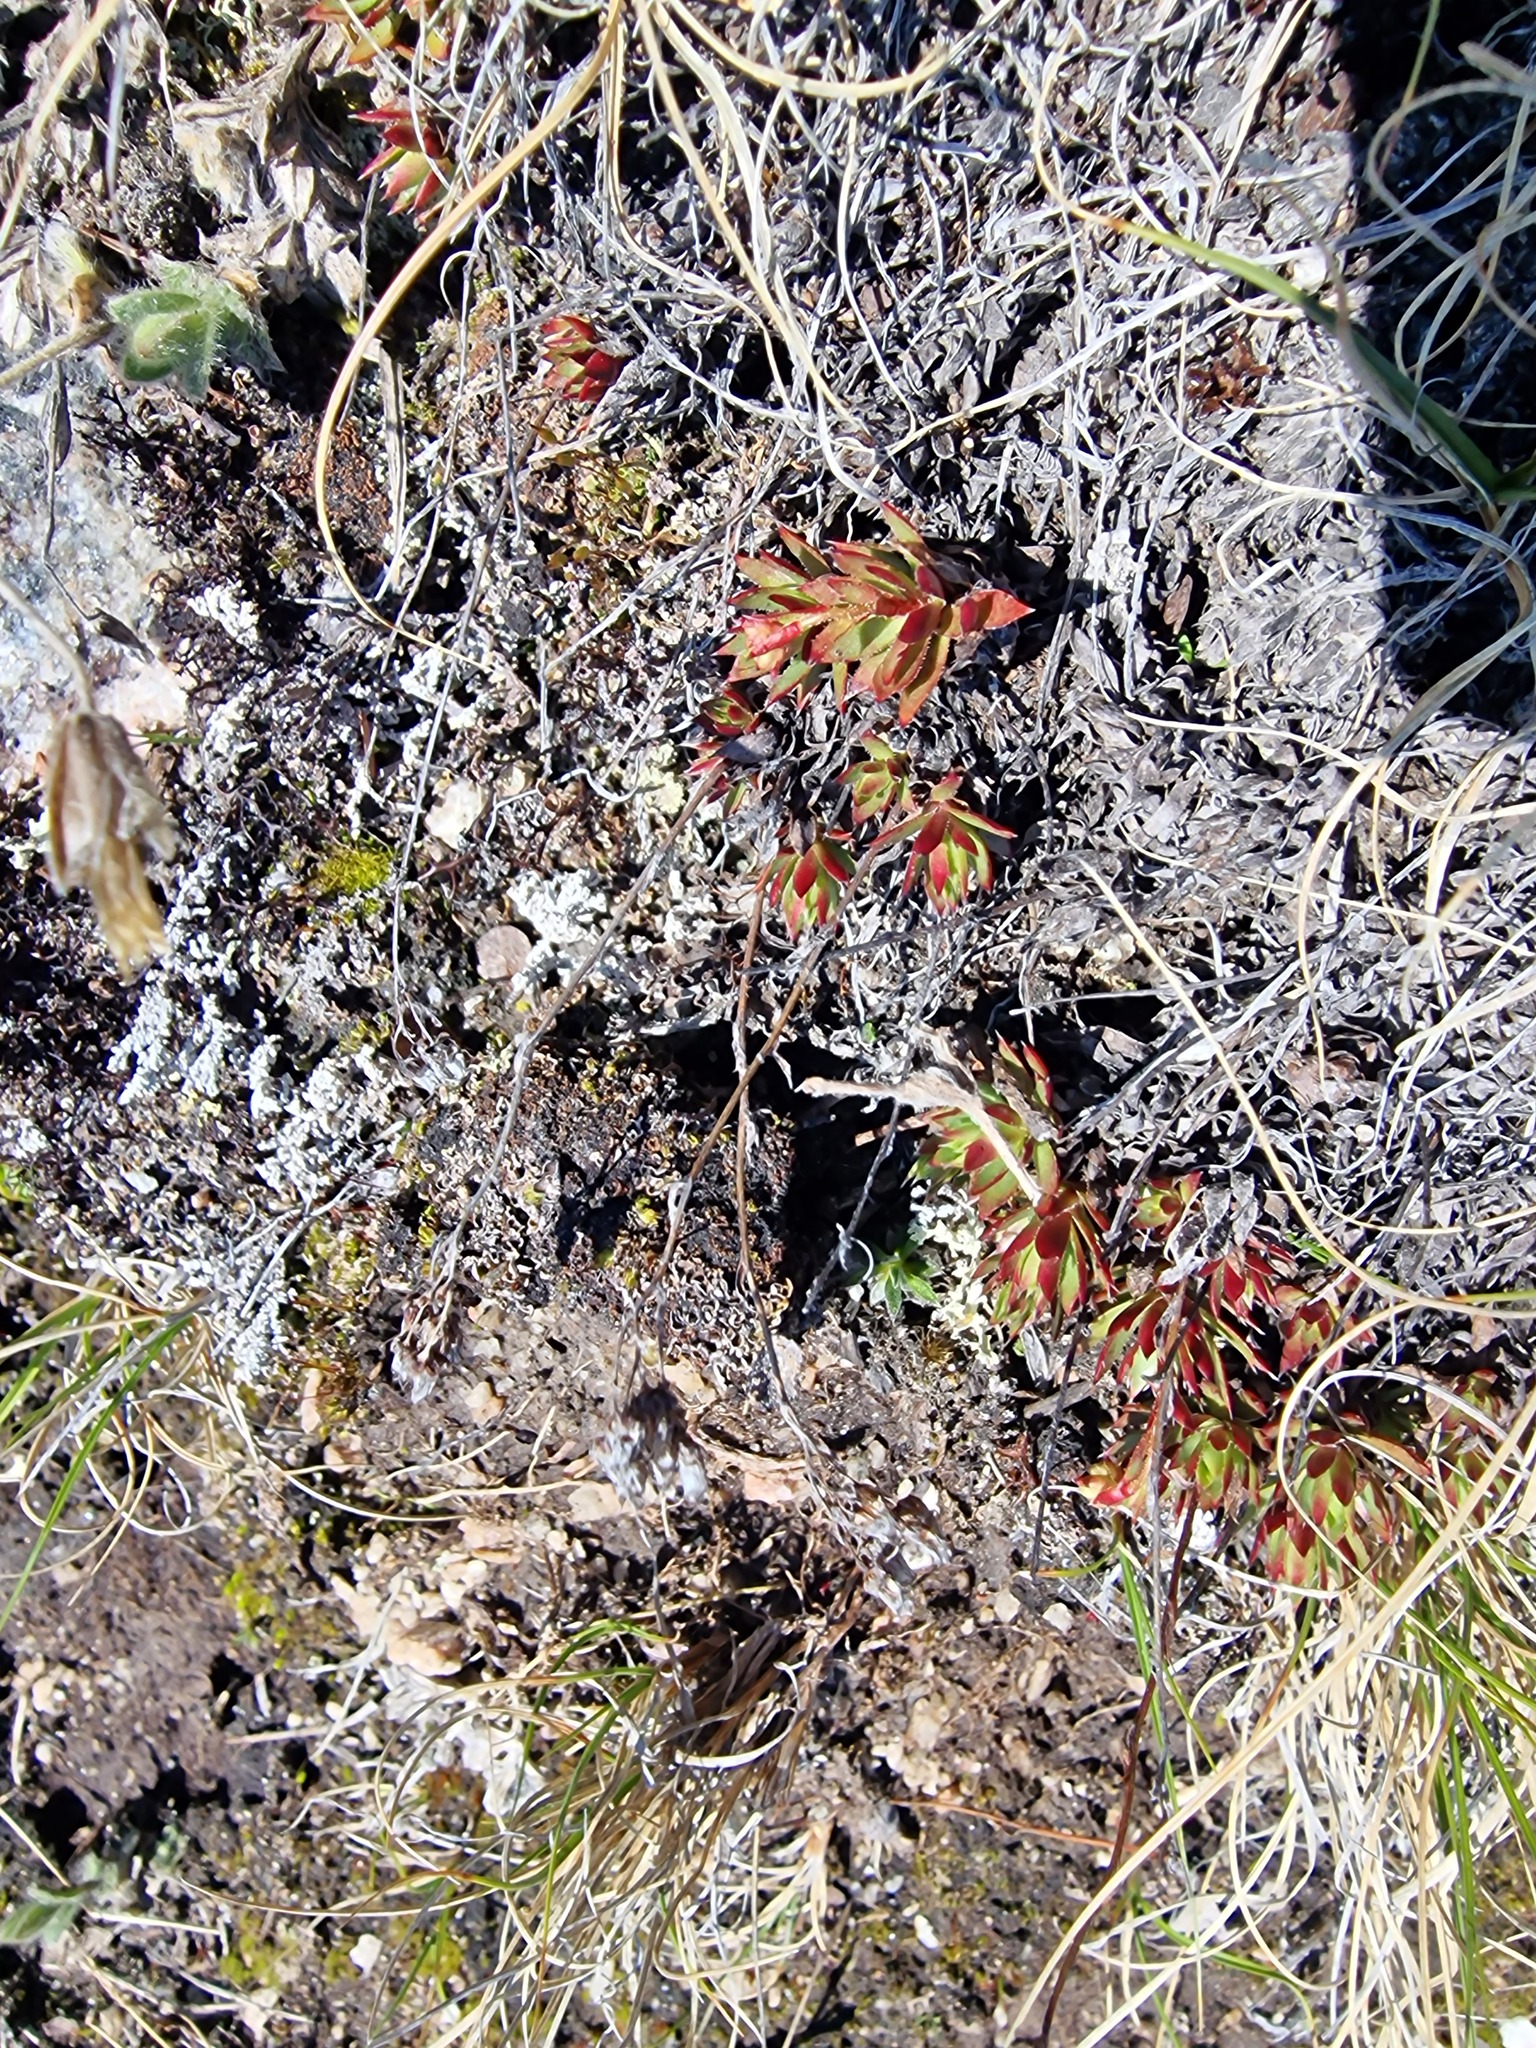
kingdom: Plantae
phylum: Tracheophyta
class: Magnoliopsida
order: Saxifragales
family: Saxifragaceae
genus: Saxifraga
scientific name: Saxifraga tricuspidata
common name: Prickly saxifrage
